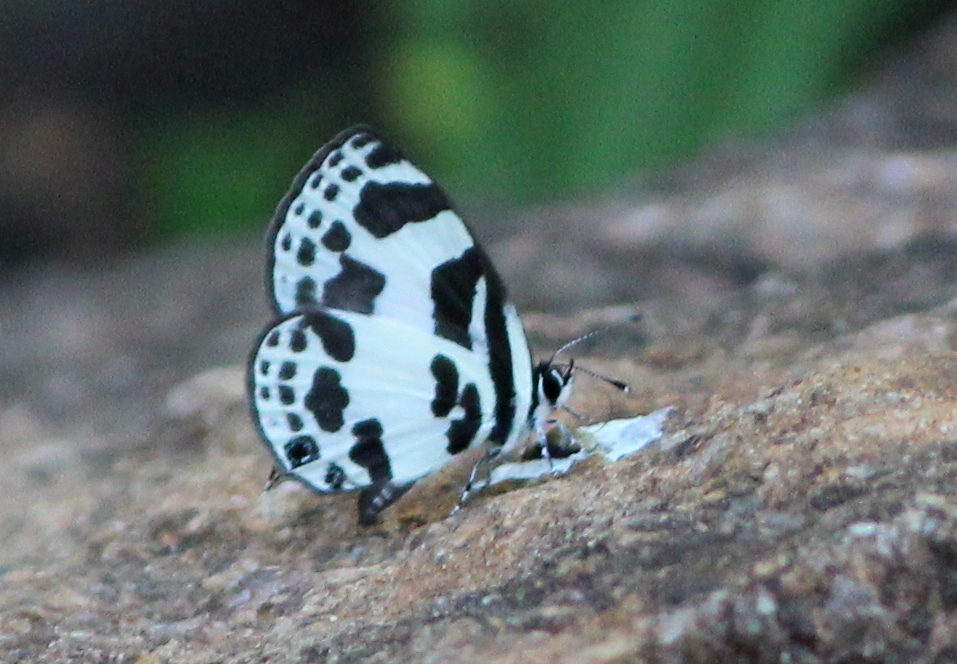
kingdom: Animalia
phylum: Arthropoda
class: Insecta
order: Lepidoptera
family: Lycaenidae
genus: Discolampa
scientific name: Discolampa ethion
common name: Banded blue pierrot
